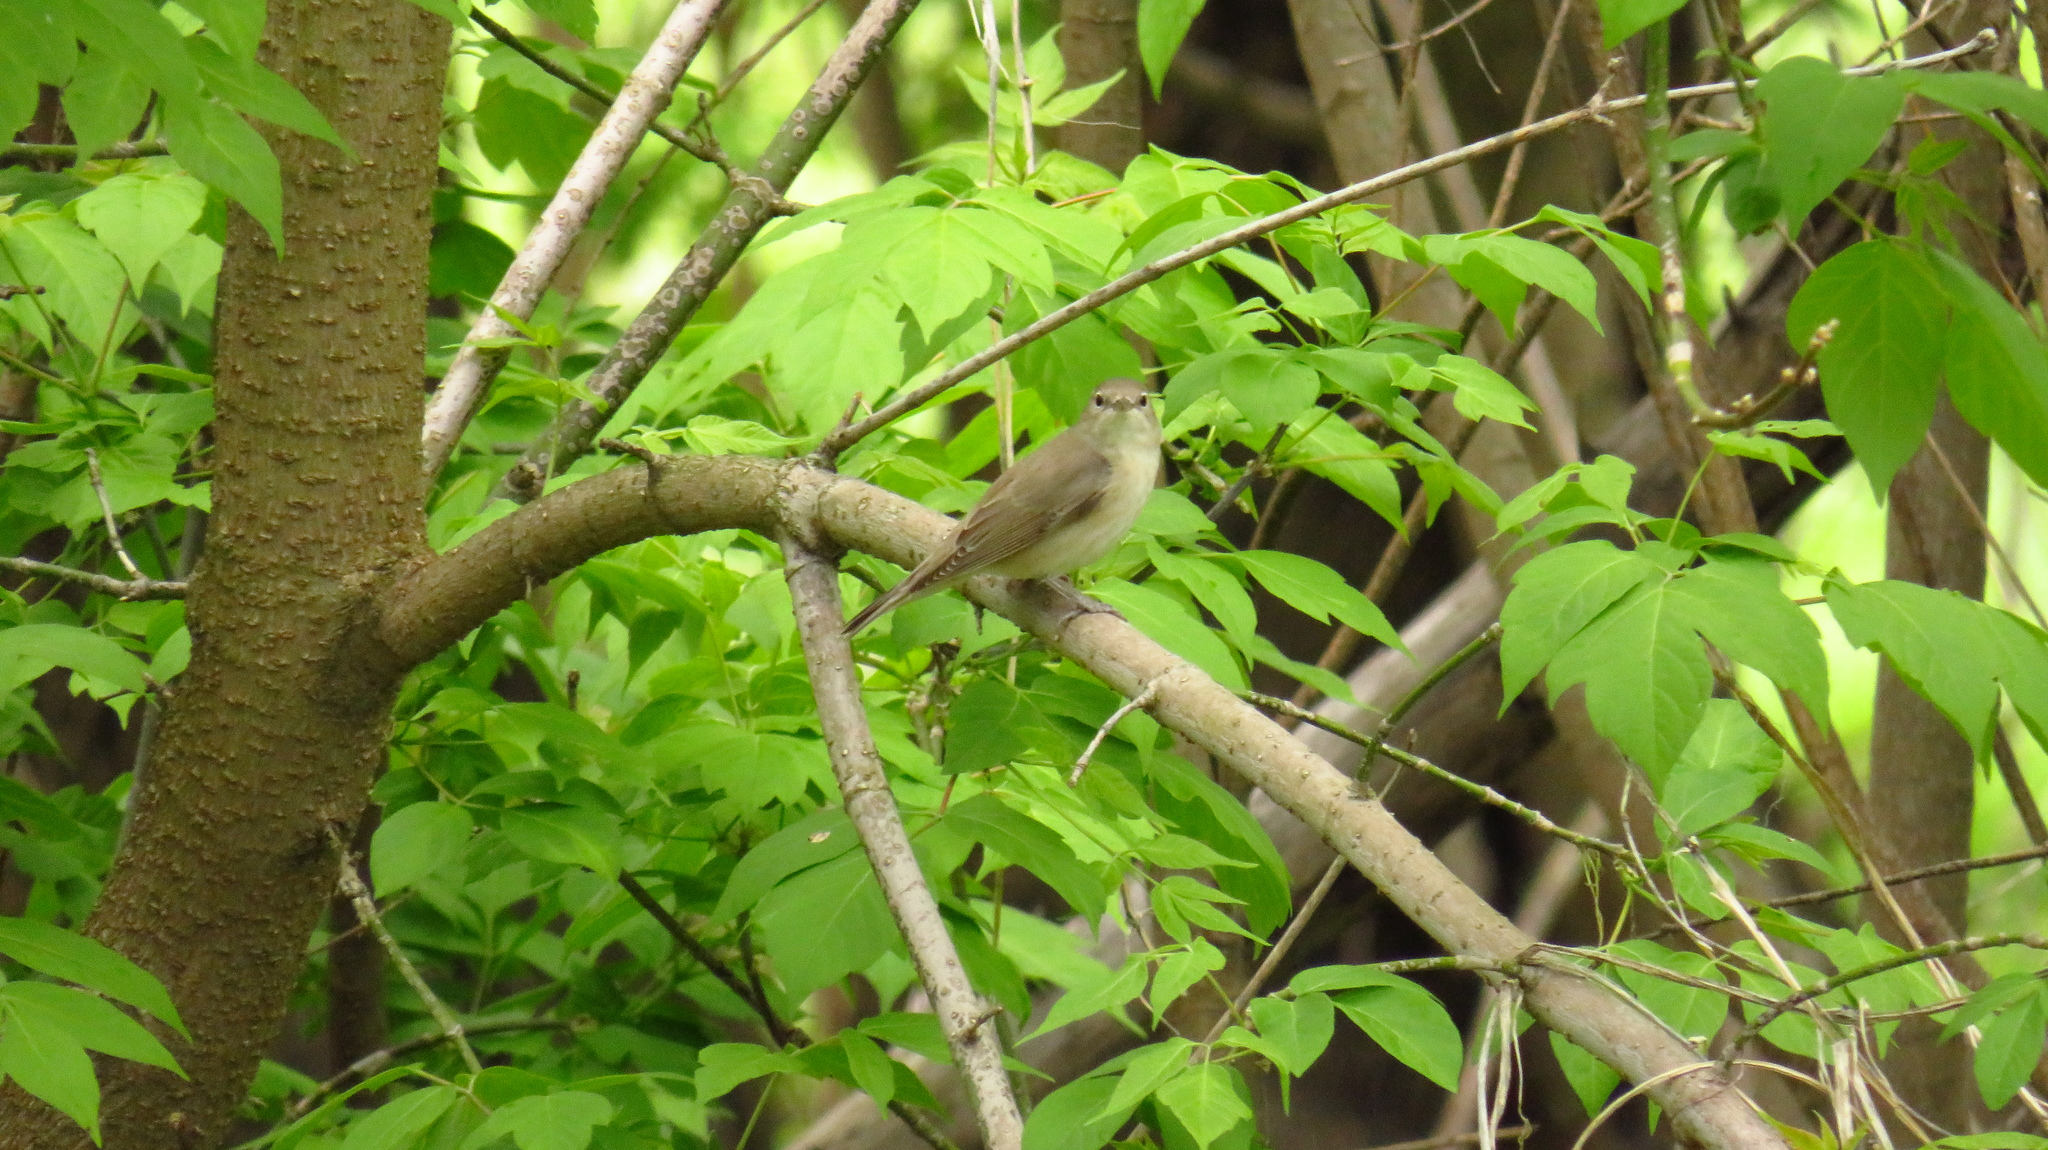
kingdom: Animalia
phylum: Chordata
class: Aves
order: Passeriformes
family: Sylviidae
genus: Sylvia
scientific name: Sylvia borin
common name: Garden warbler
